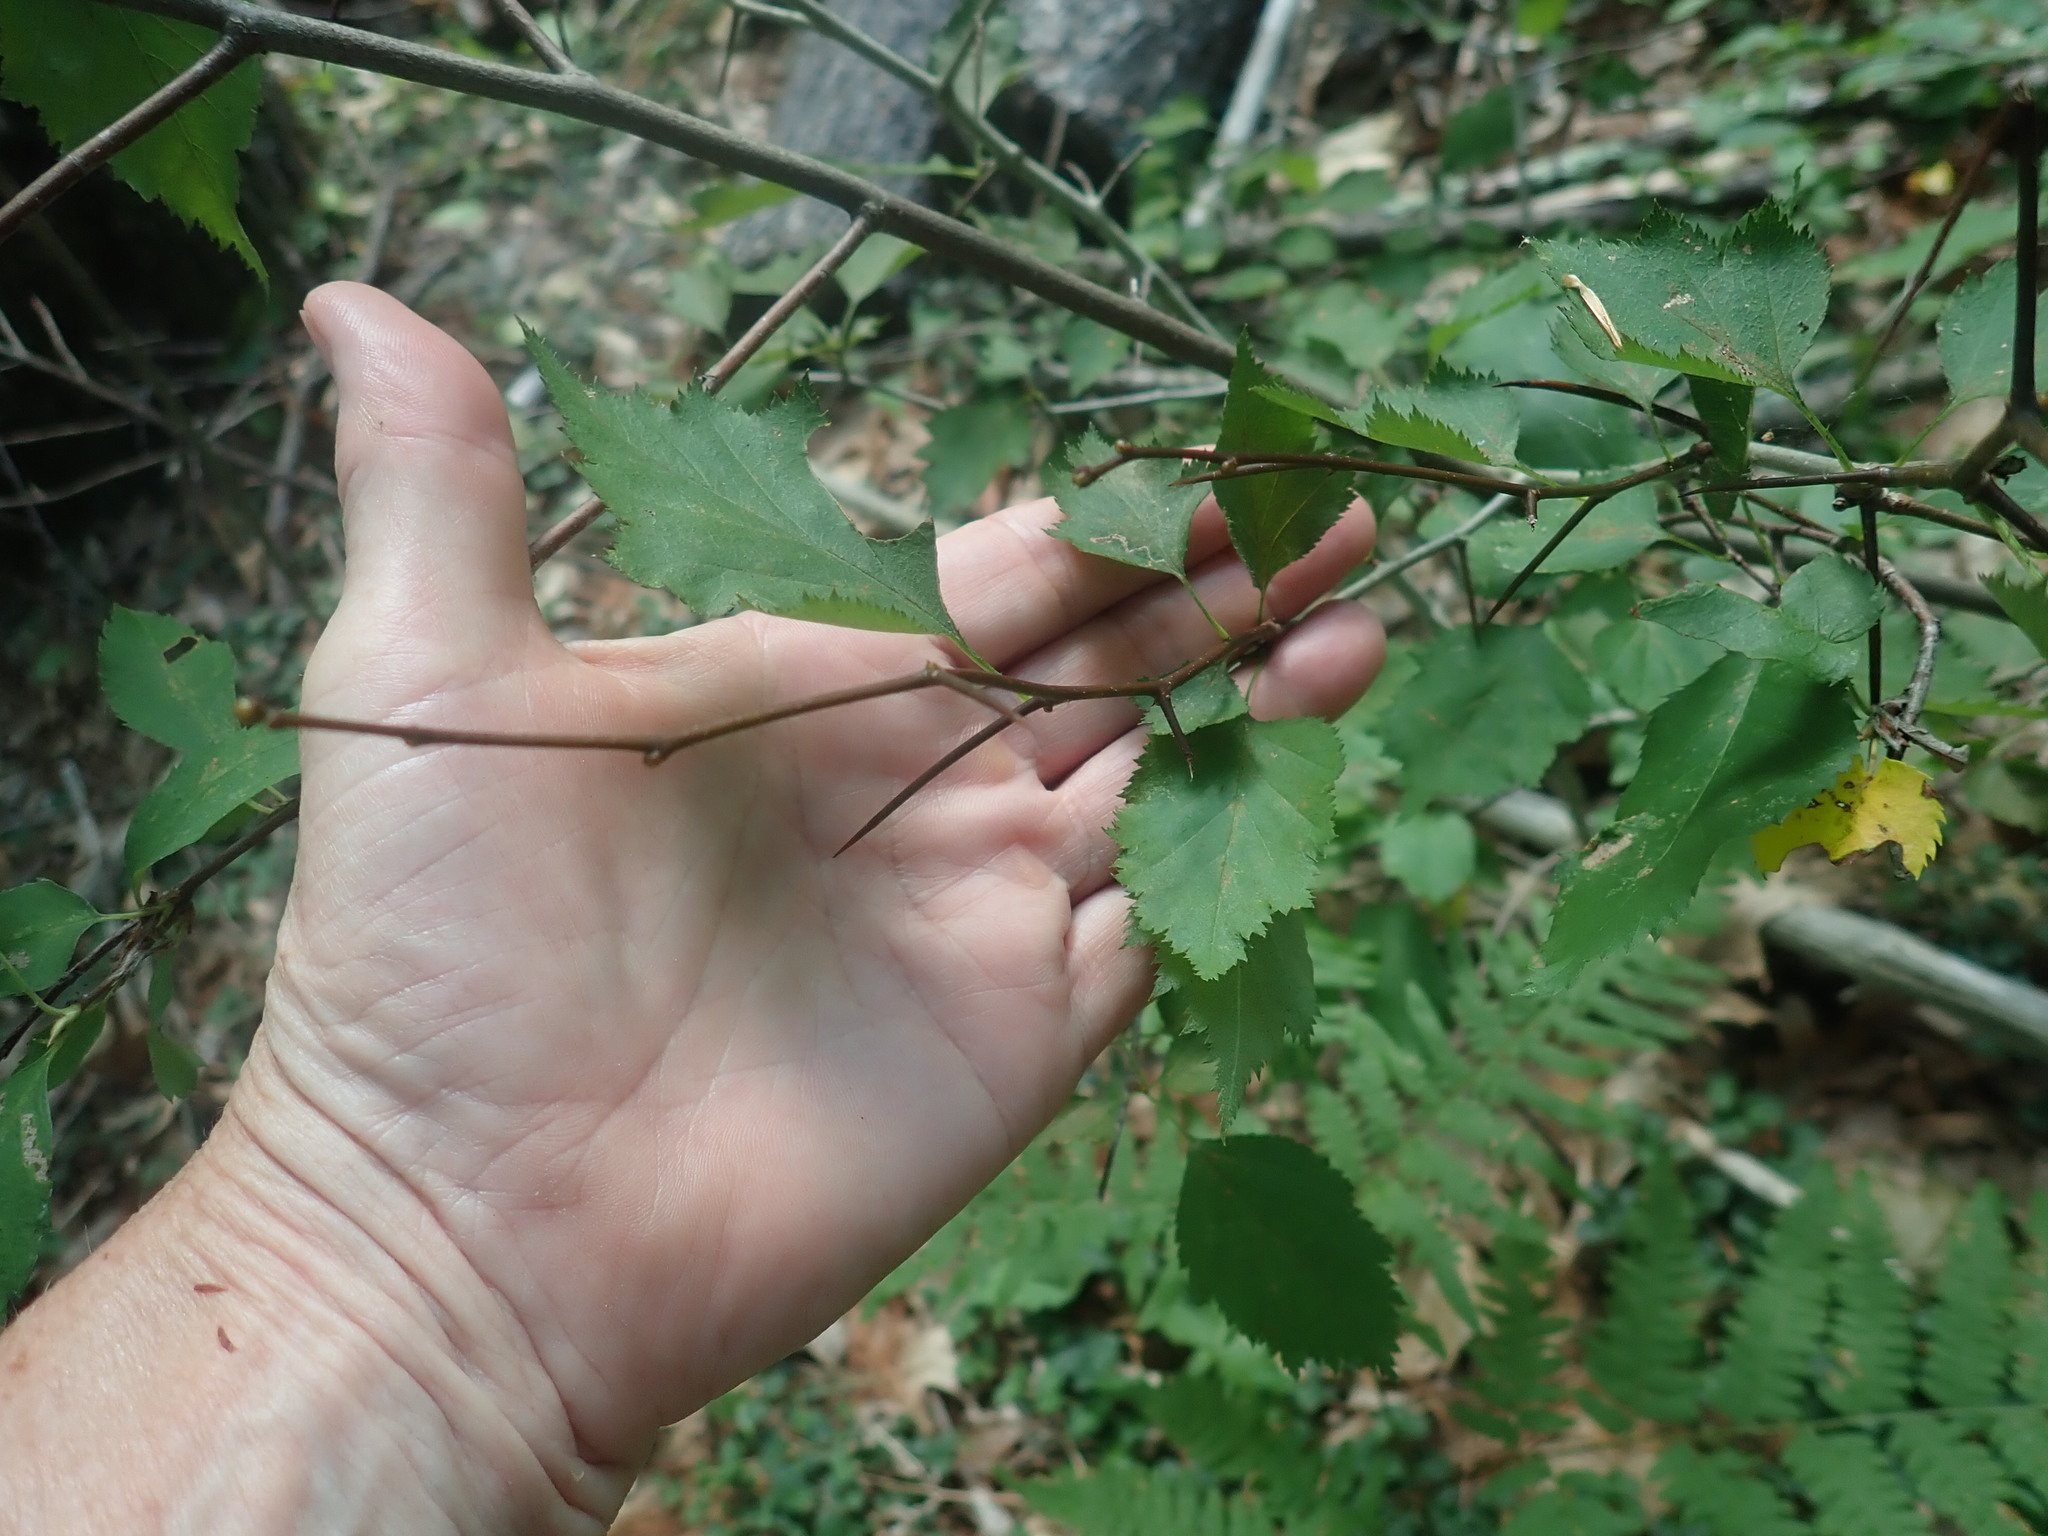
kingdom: Plantae
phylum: Tracheophyta
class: Magnoliopsida
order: Rosales
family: Rosaceae
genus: Crataegus
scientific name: Crataegus
